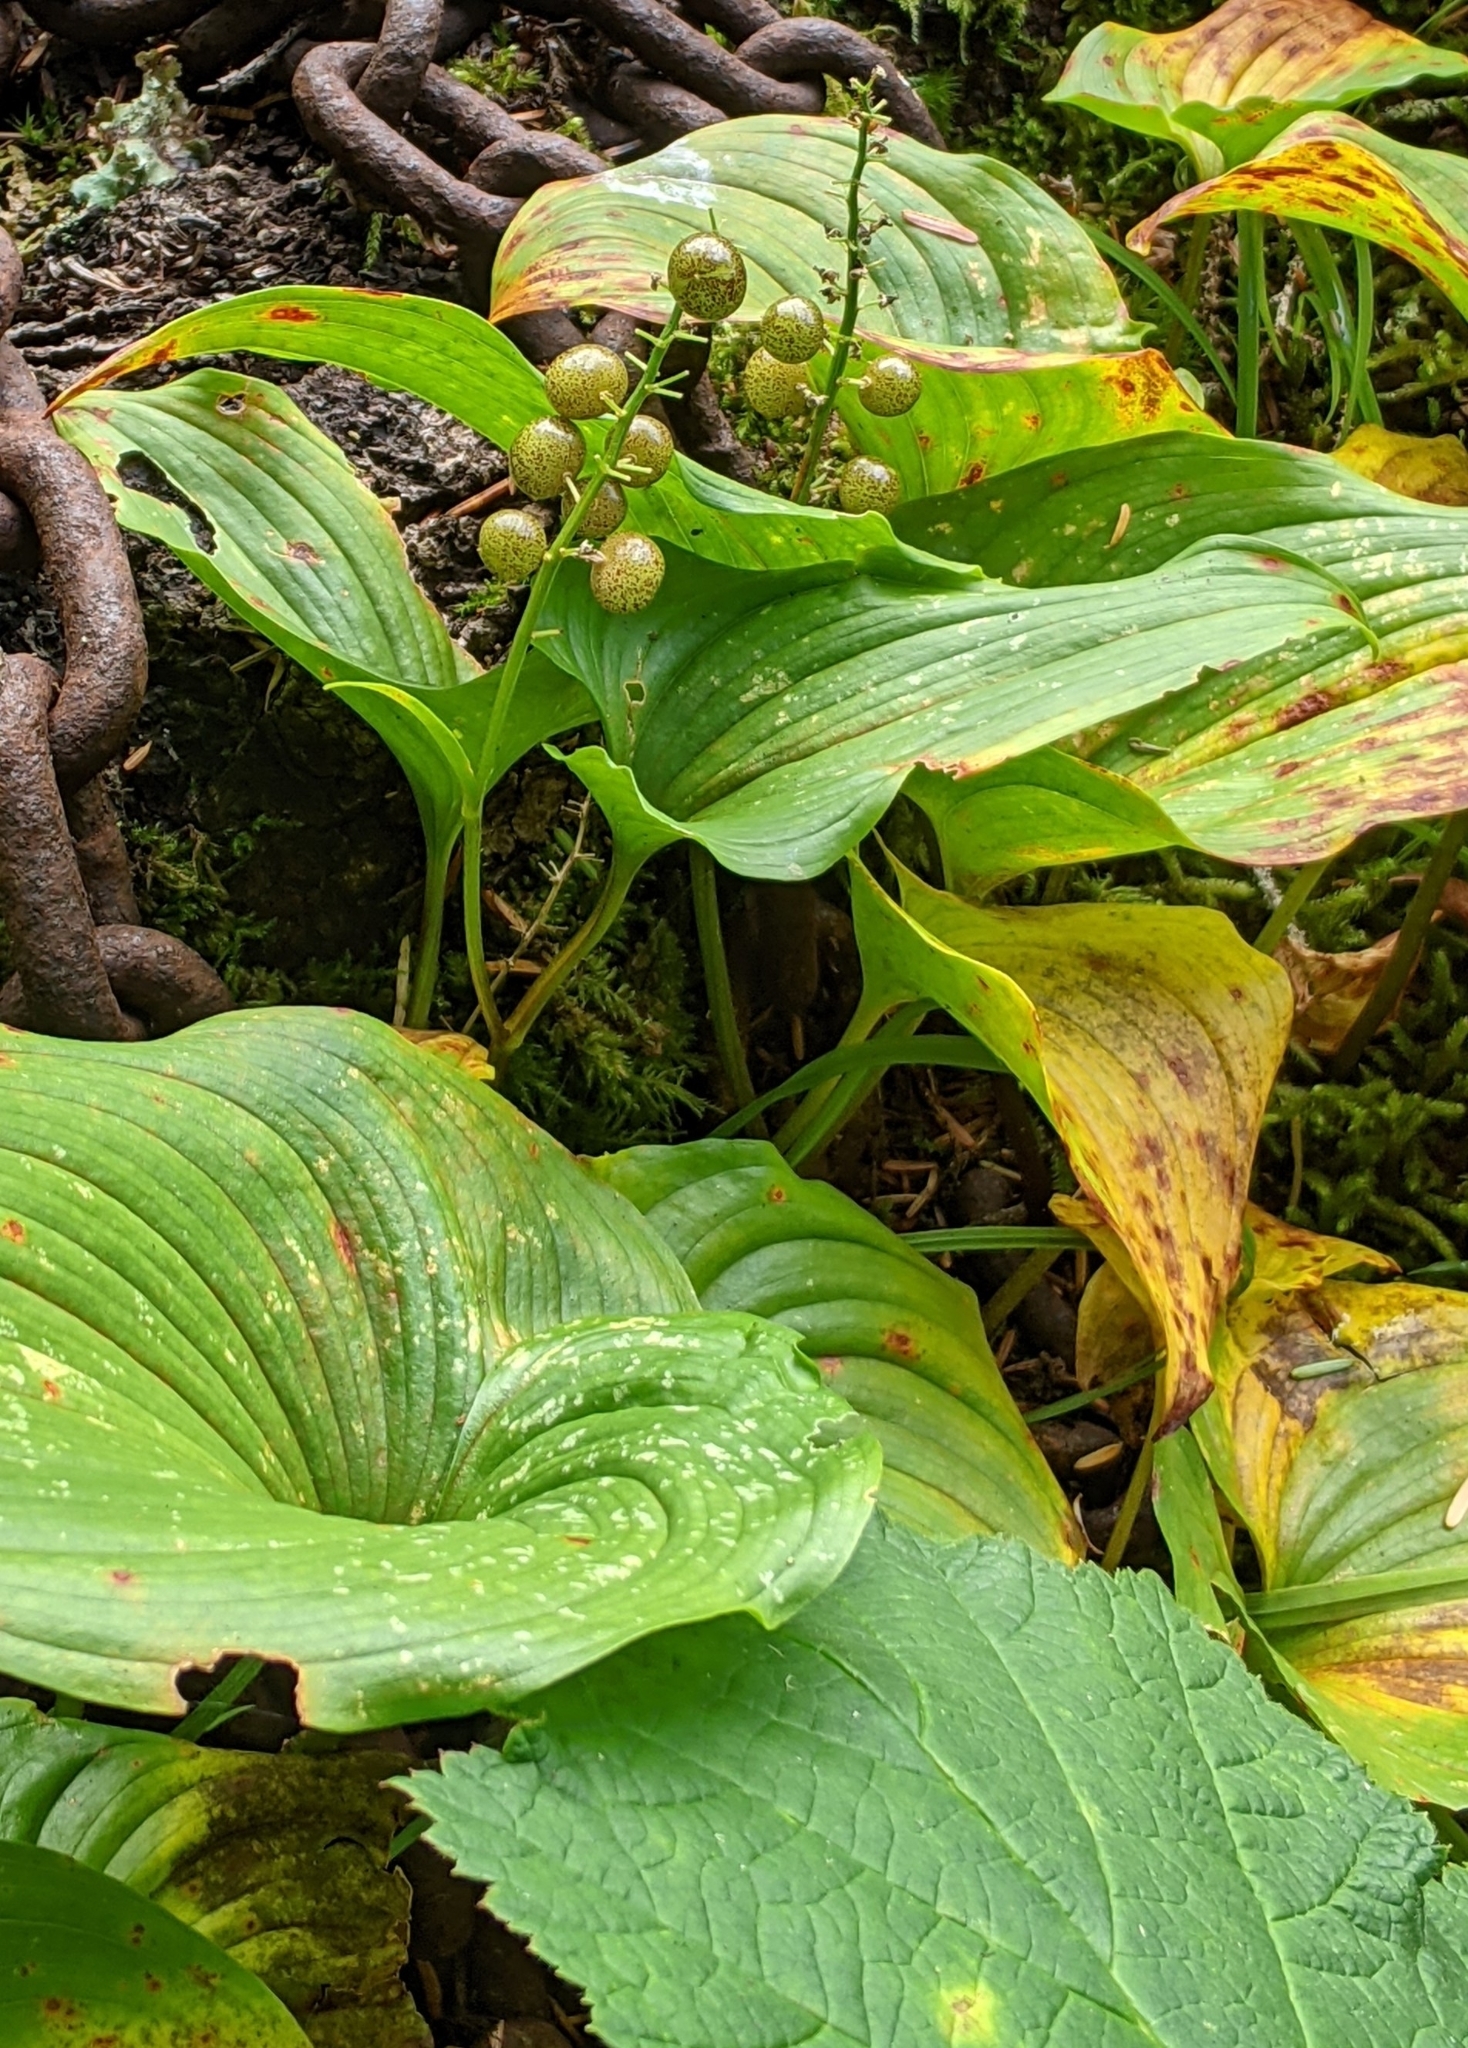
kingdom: Plantae
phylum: Tracheophyta
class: Liliopsida
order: Asparagales
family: Asparagaceae
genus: Maianthemum
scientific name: Maianthemum dilatatum
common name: False lily-of-the-valley
